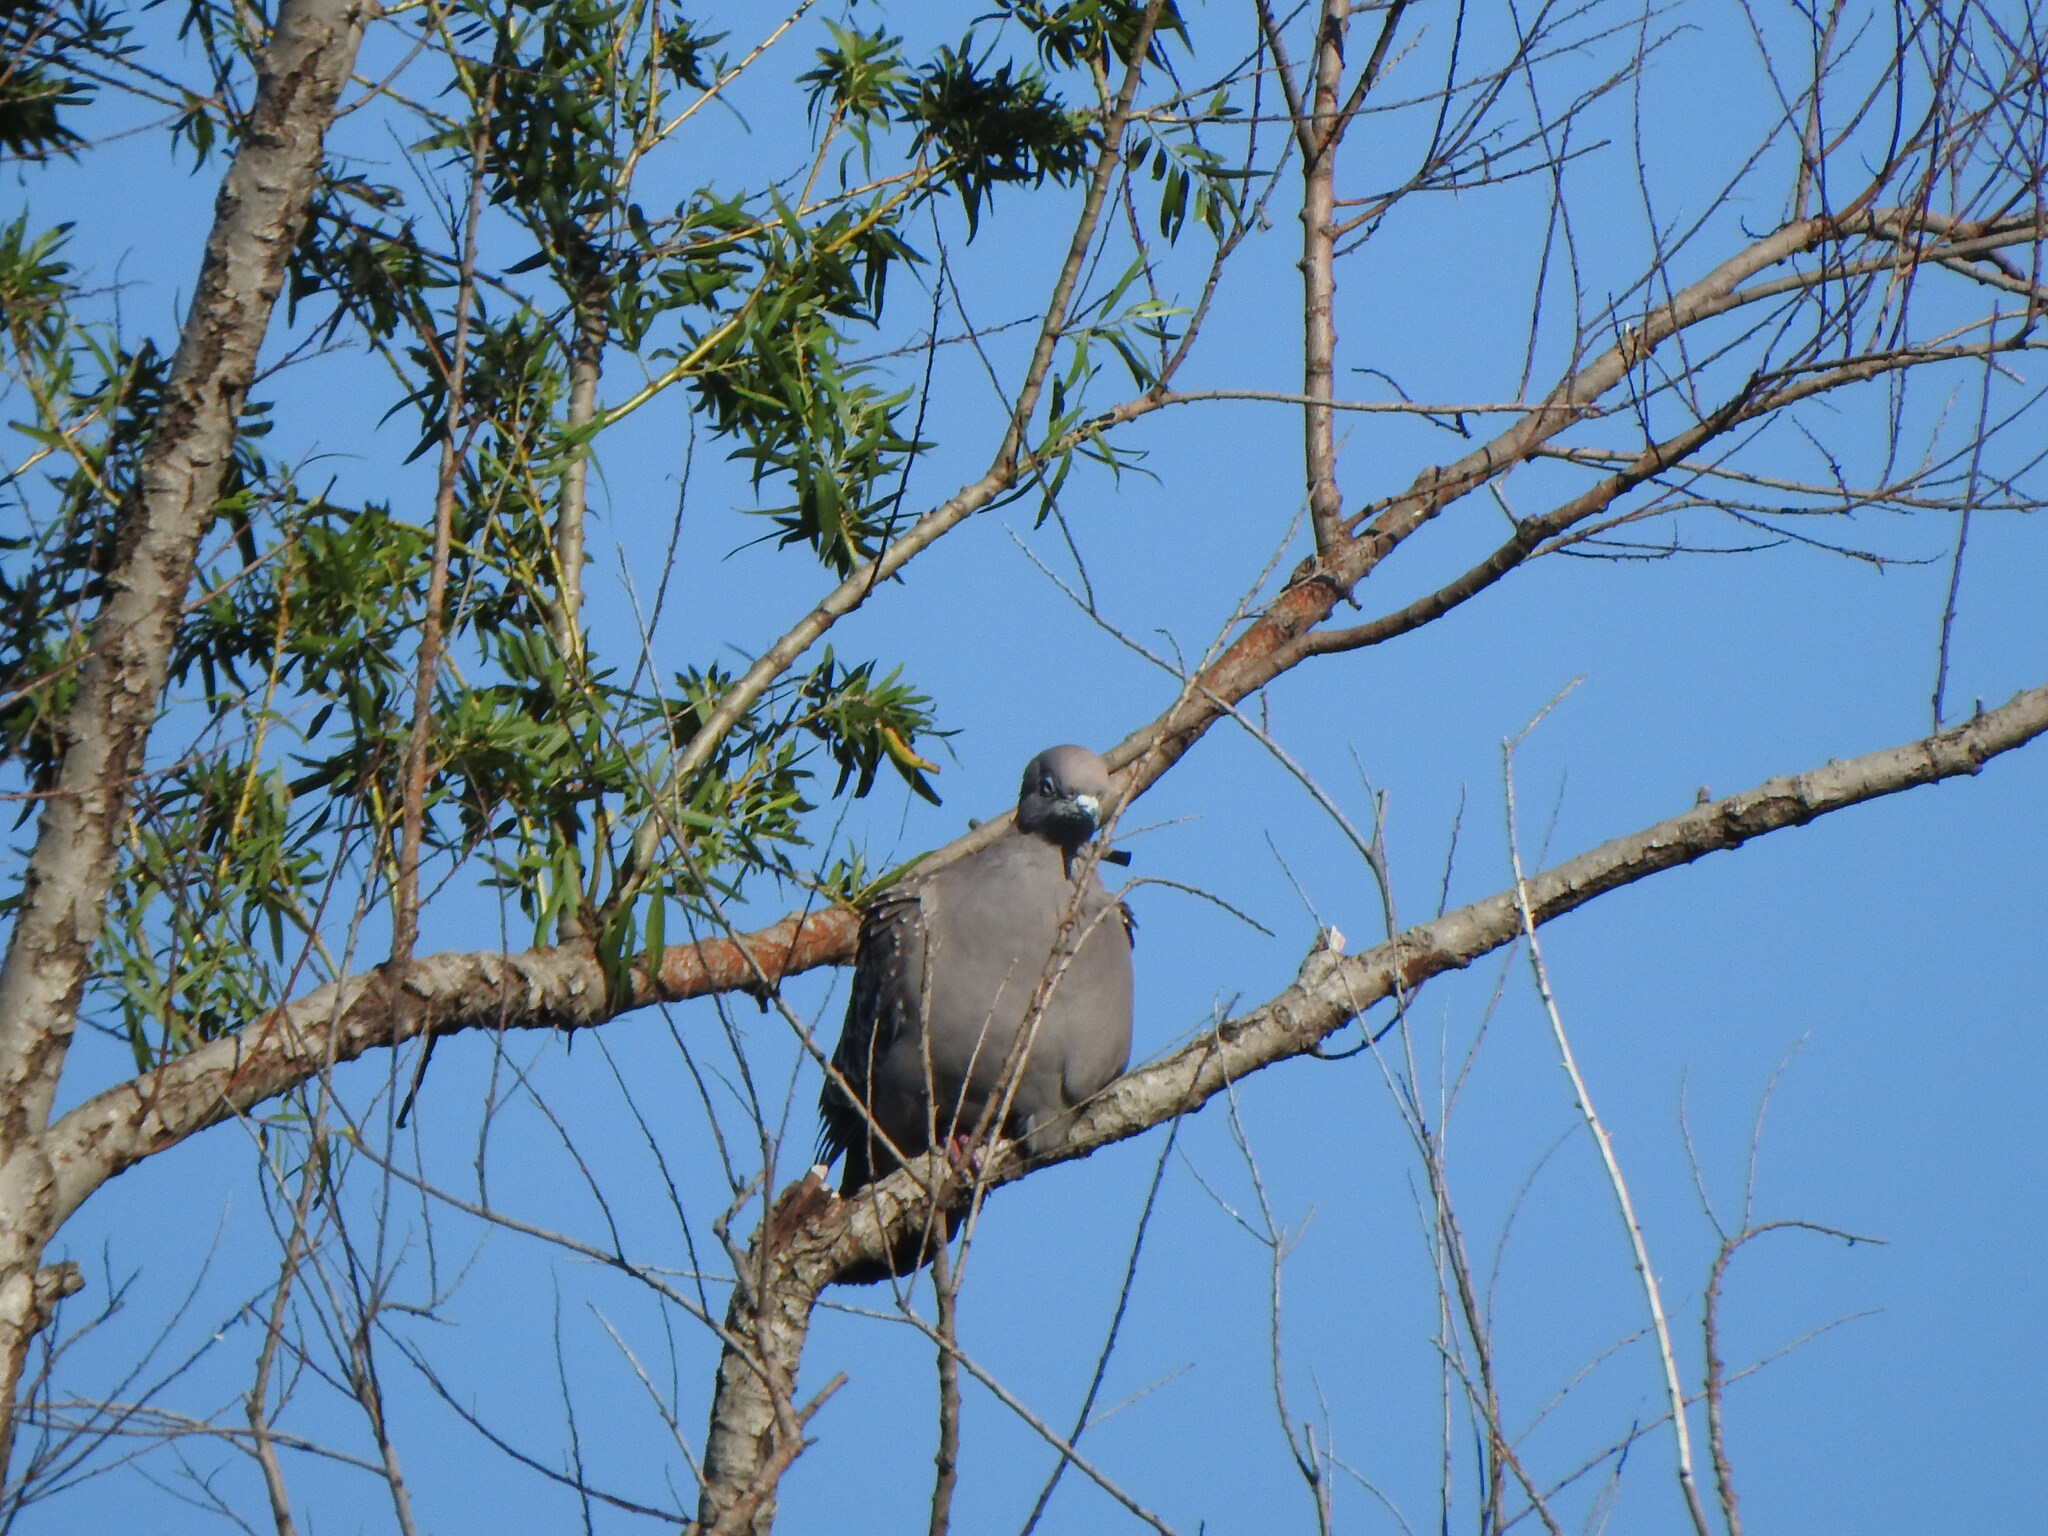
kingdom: Animalia
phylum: Chordata
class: Aves
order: Columbiformes
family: Columbidae
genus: Patagioenas
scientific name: Patagioenas maculosa
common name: Spot-winged pigeon
